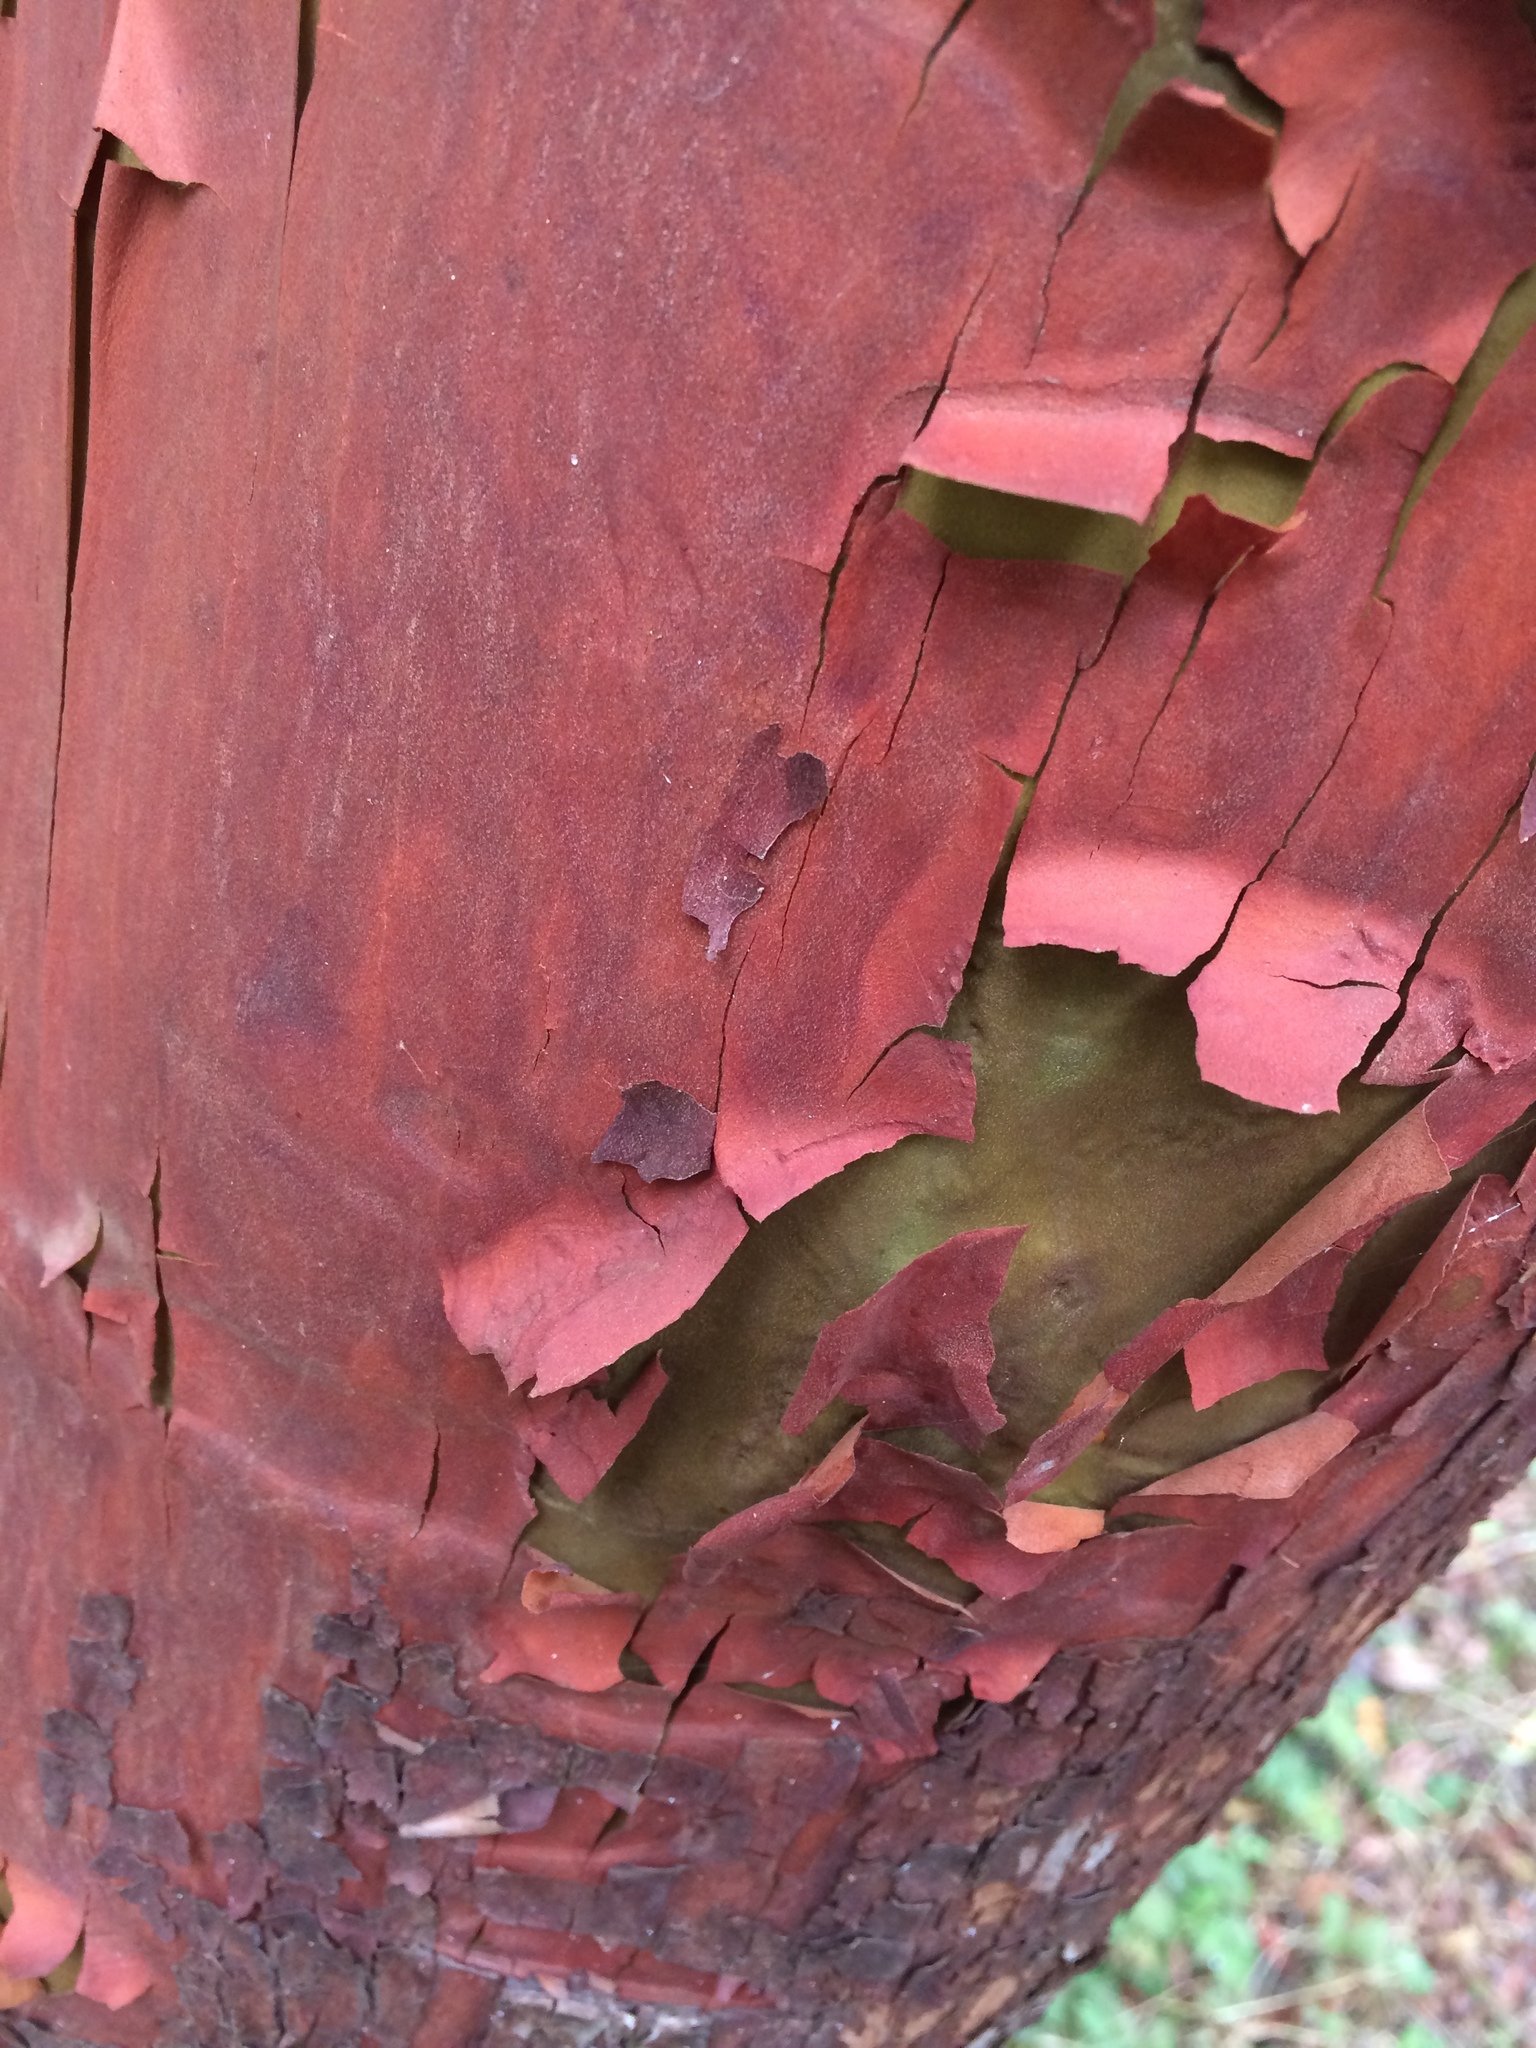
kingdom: Plantae
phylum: Tracheophyta
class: Magnoliopsida
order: Ericales
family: Ericaceae
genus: Arbutus
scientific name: Arbutus menziesii
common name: Pacific madrone
